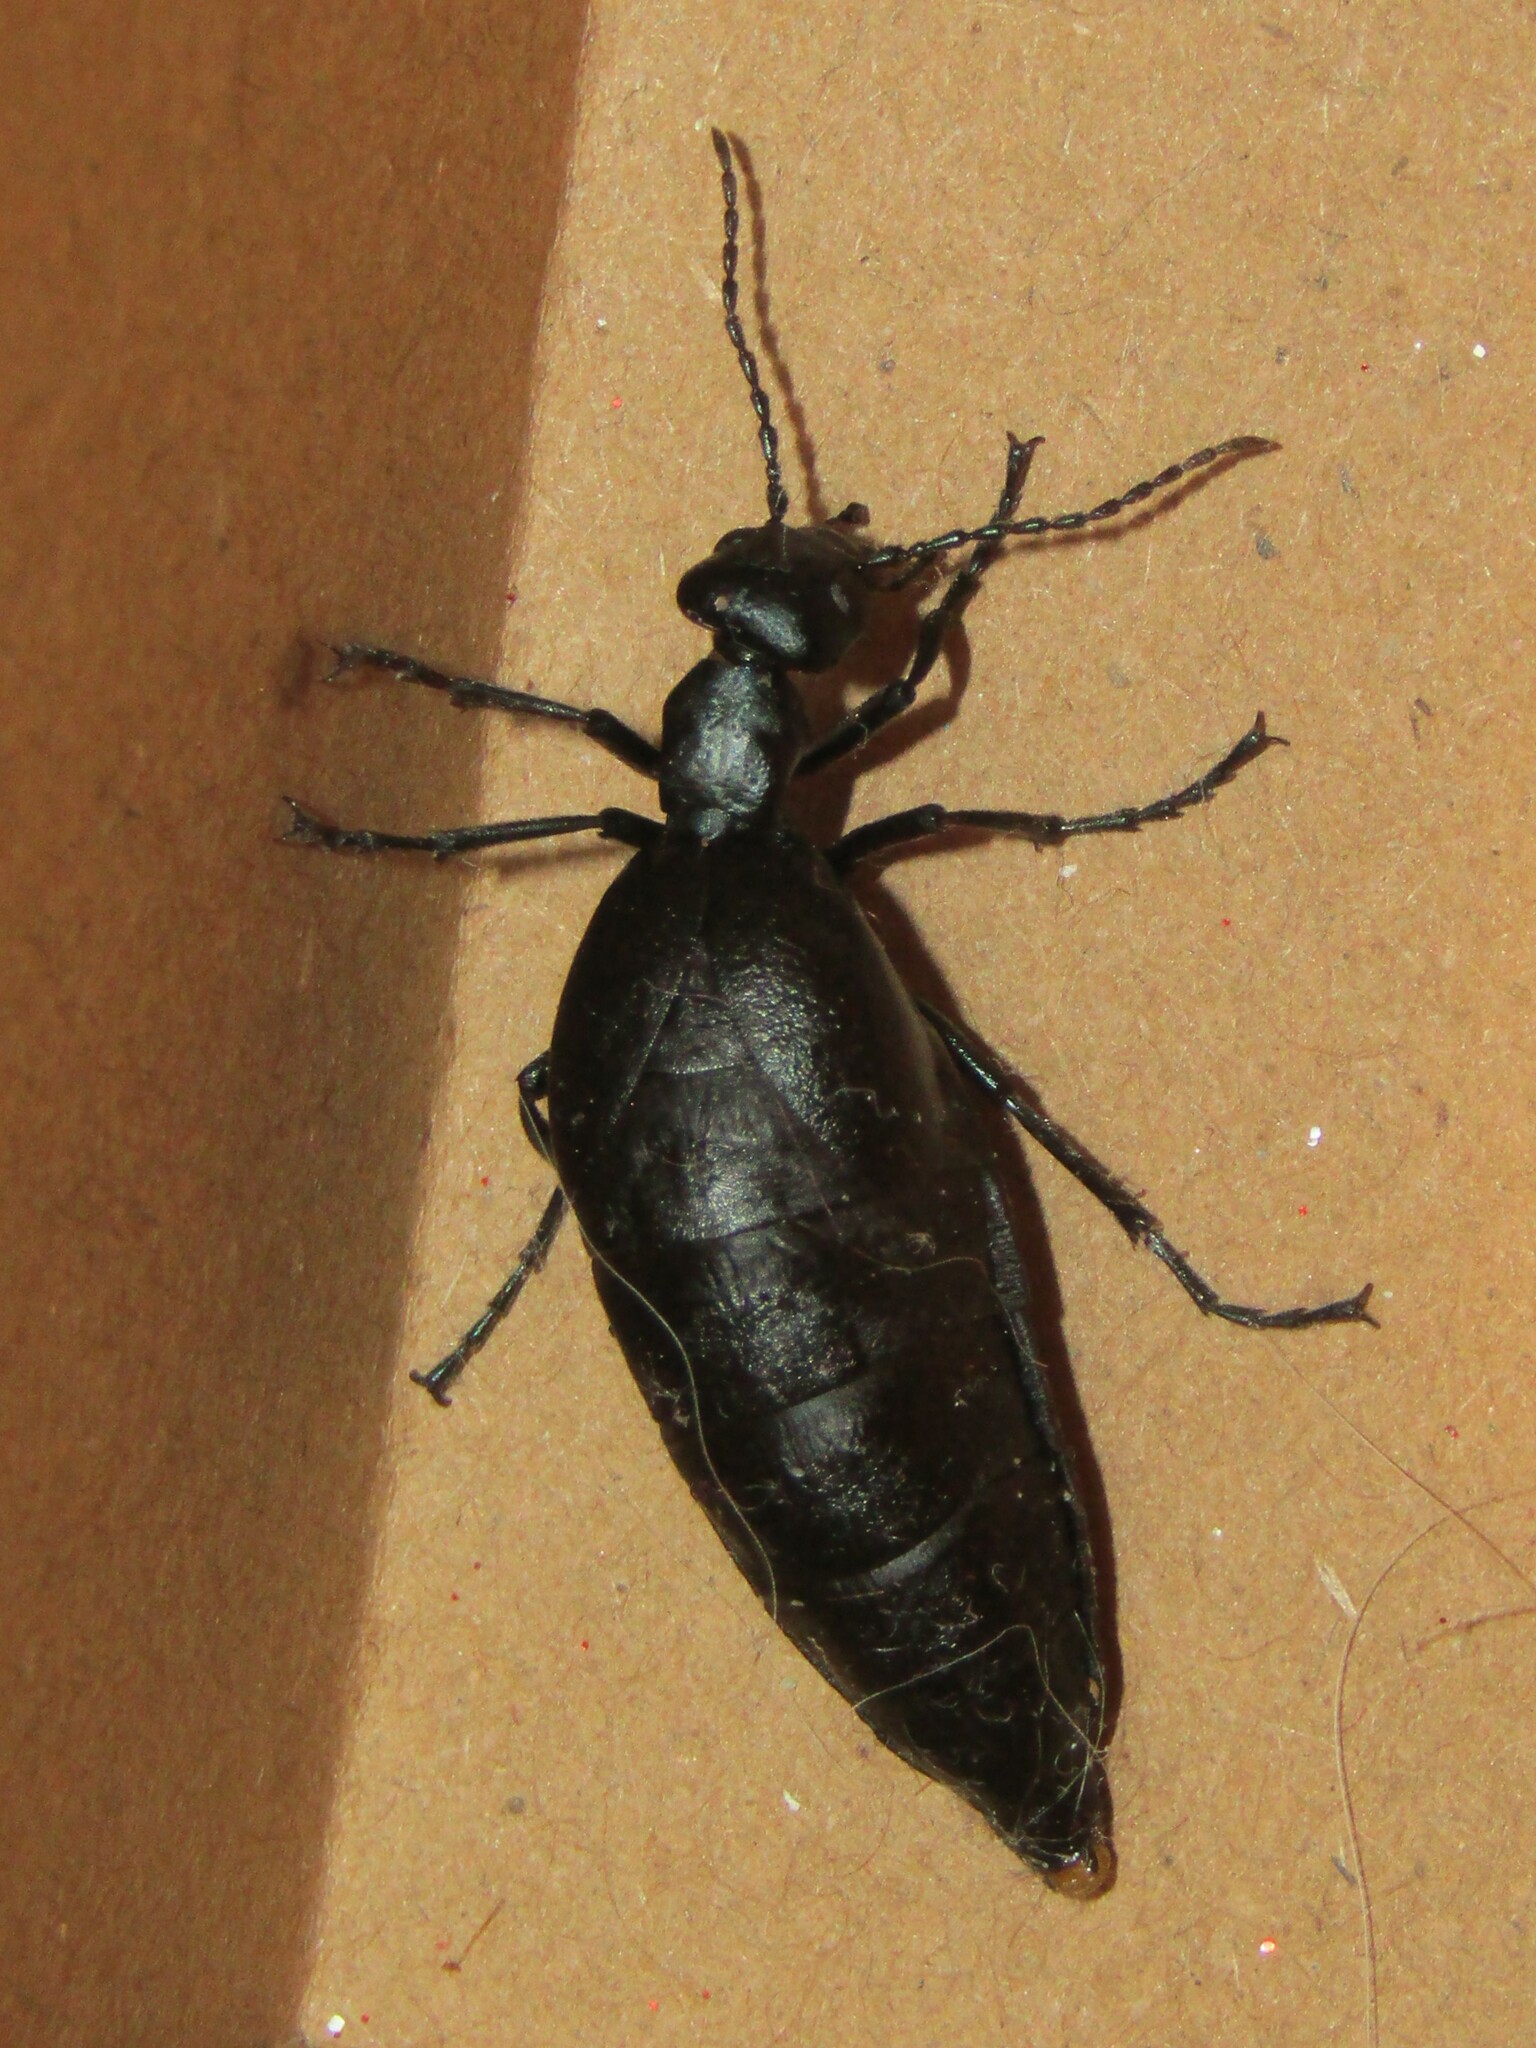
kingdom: Animalia
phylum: Arthropoda
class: Insecta
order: Coleoptera
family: Meloidae
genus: Meloe
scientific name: Meloe americanus
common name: Buttercup oil beetle
